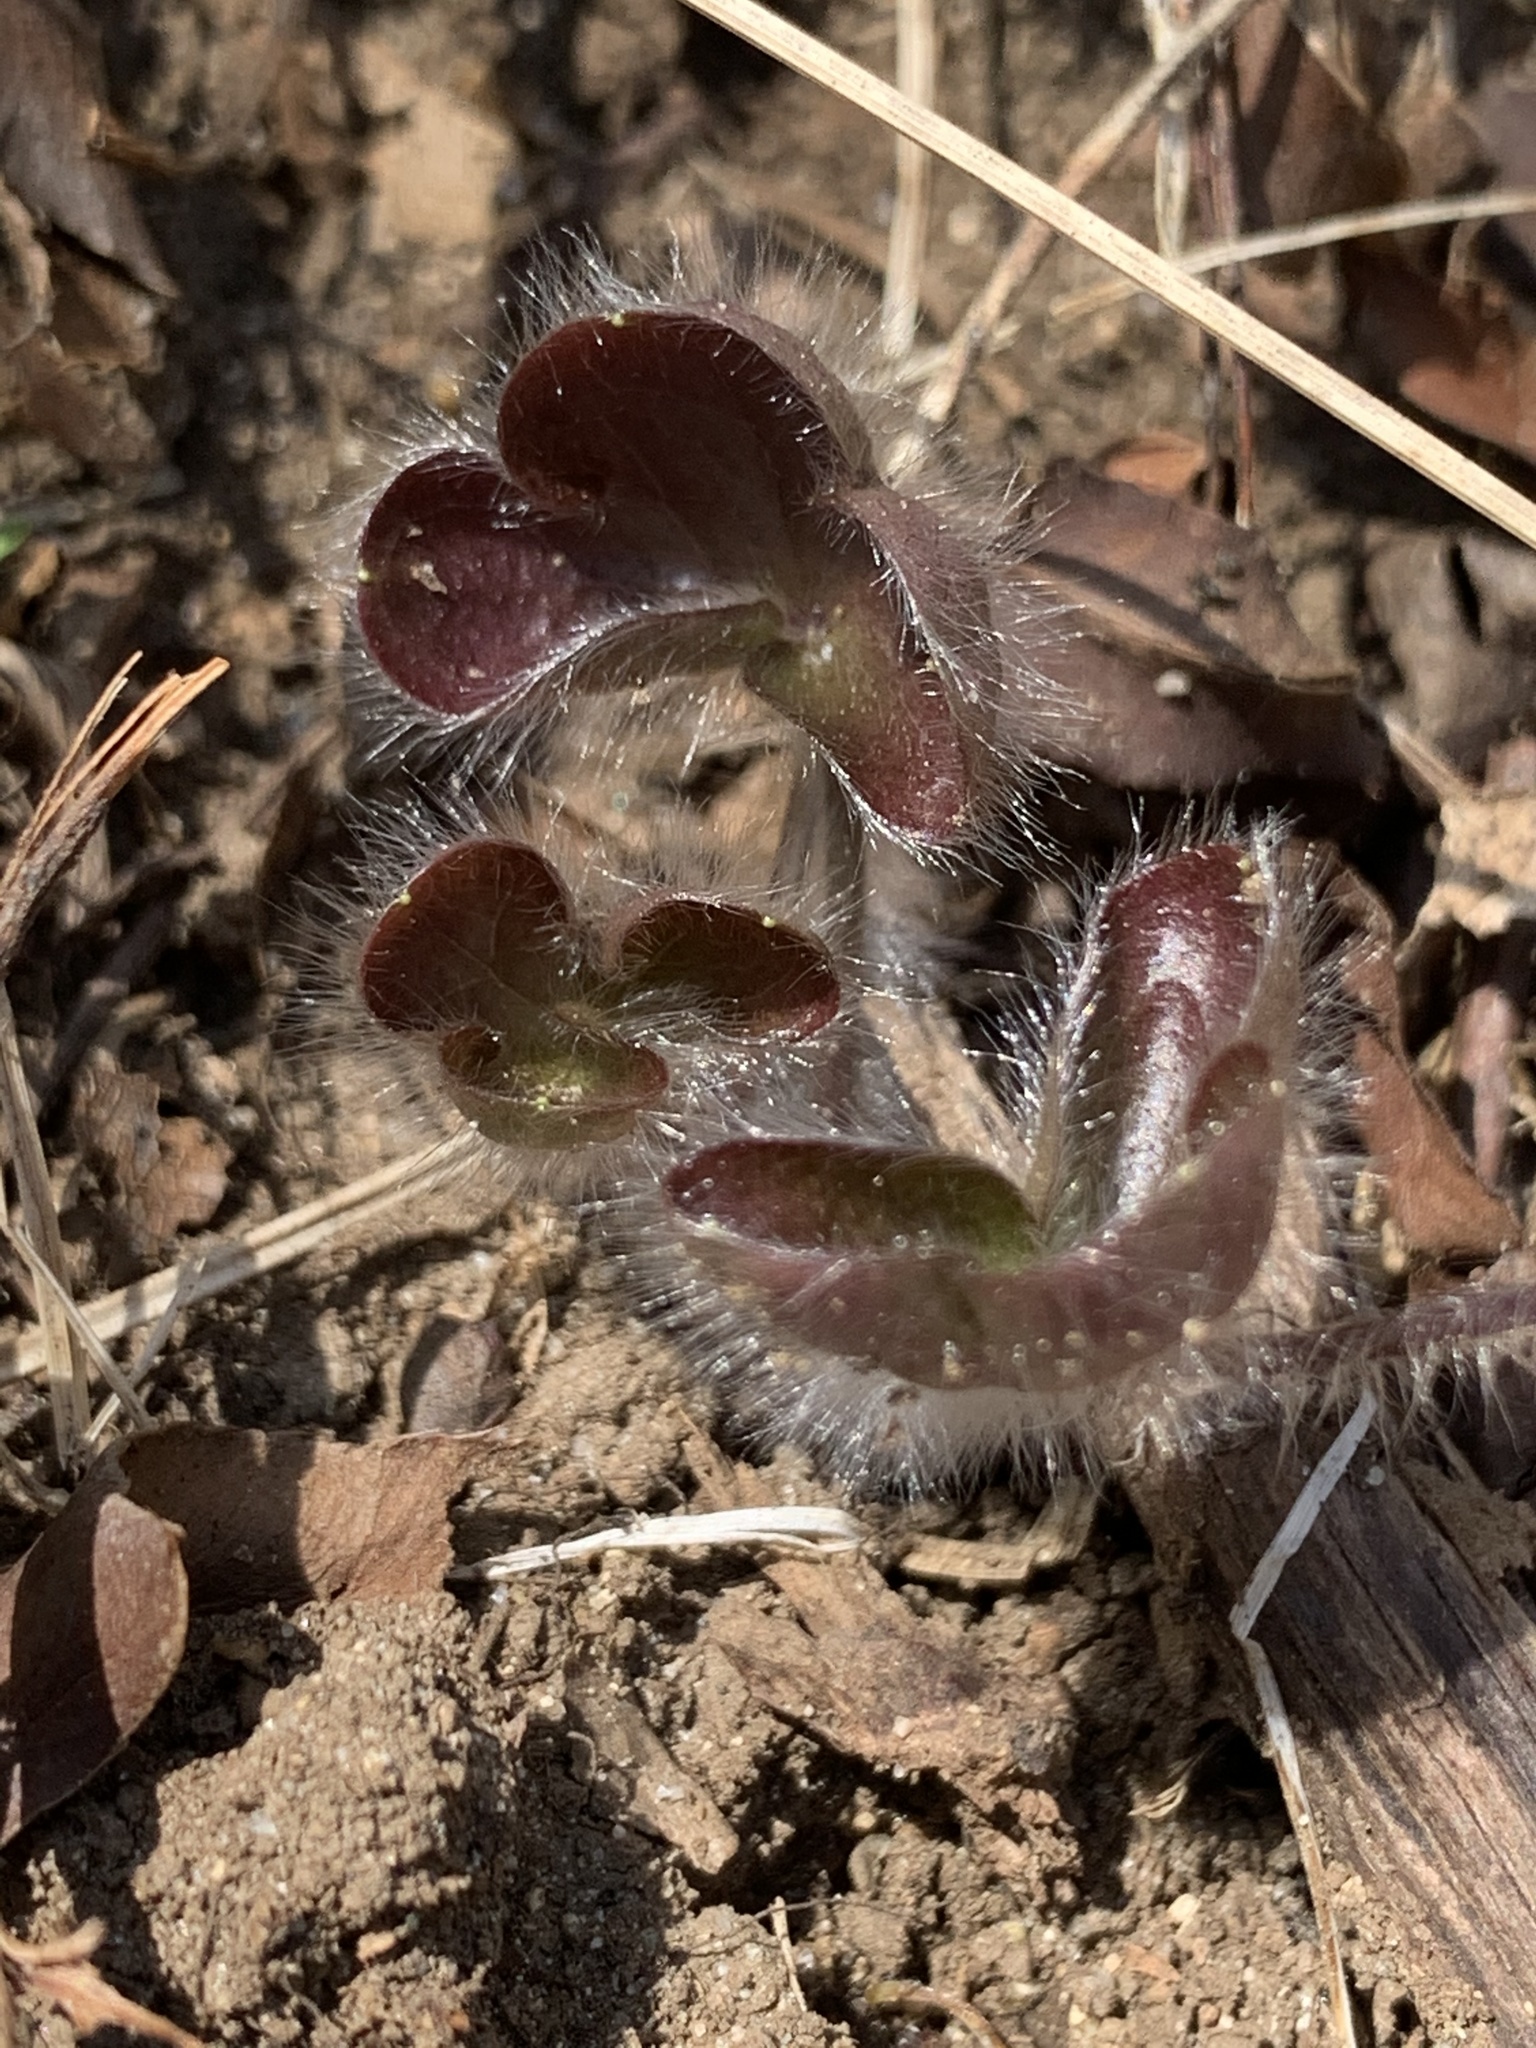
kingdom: Plantae
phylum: Tracheophyta
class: Magnoliopsida
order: Ranunculales
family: Ranunculaceae
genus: Hepatica
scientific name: Hepatica americana
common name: American hepatica
